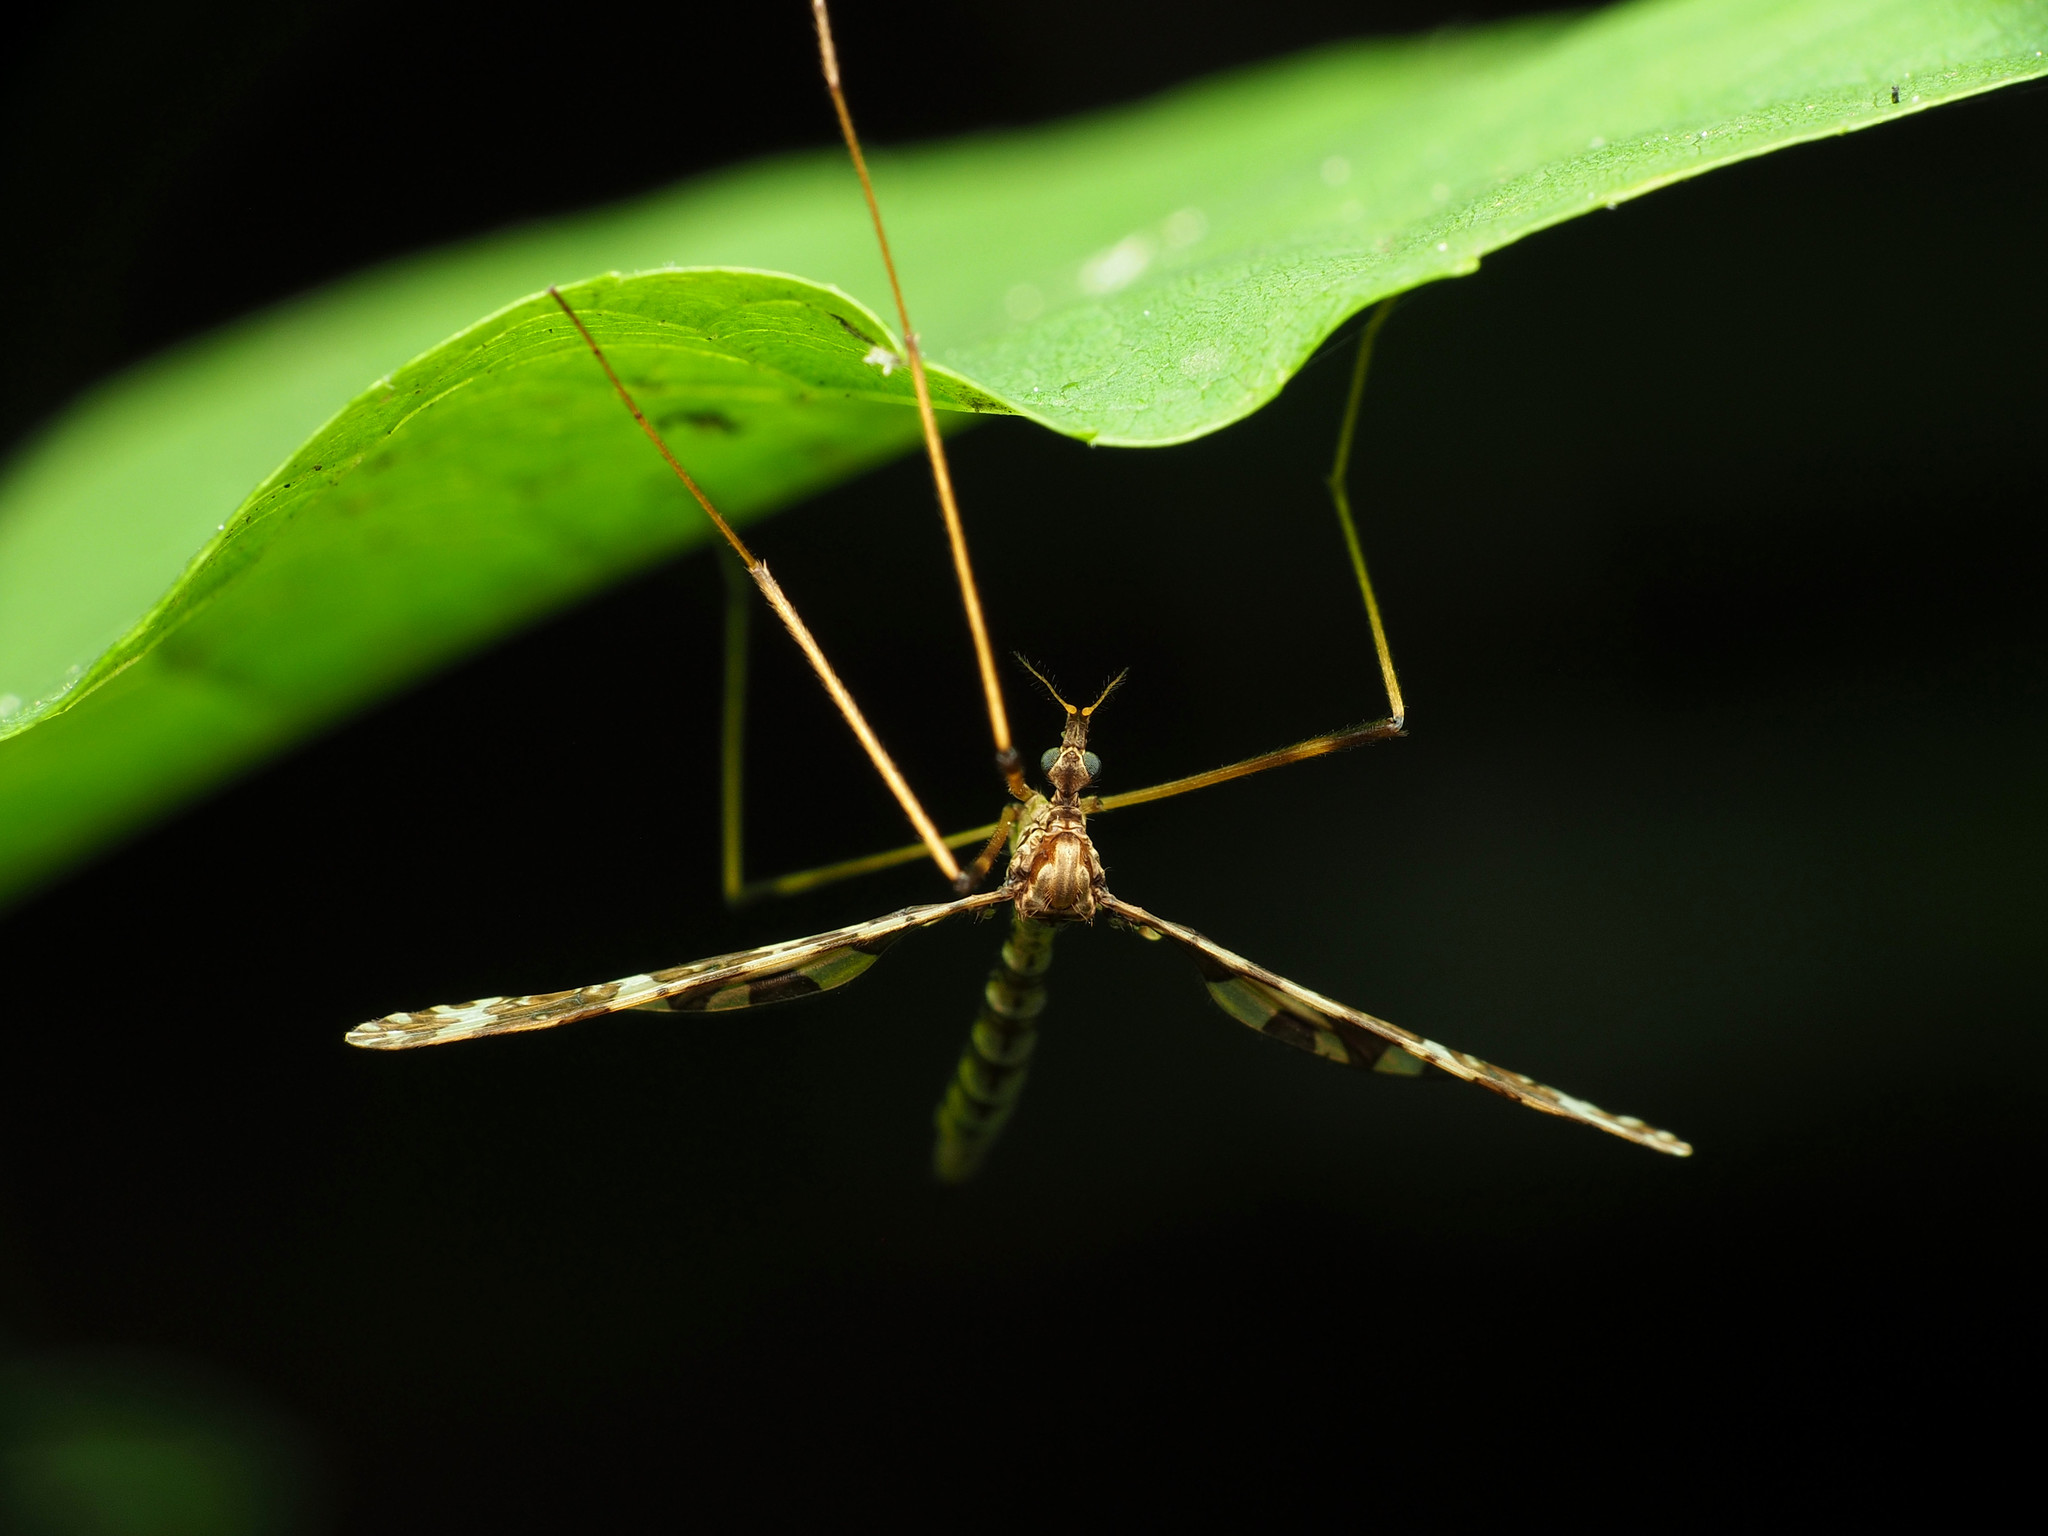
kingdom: Animalia
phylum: Arthropoda
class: Insecta
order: Diptera
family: Limoniidae
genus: Epiphragma
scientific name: Epiphragma fasciapenne
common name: Band-winged crane fly
